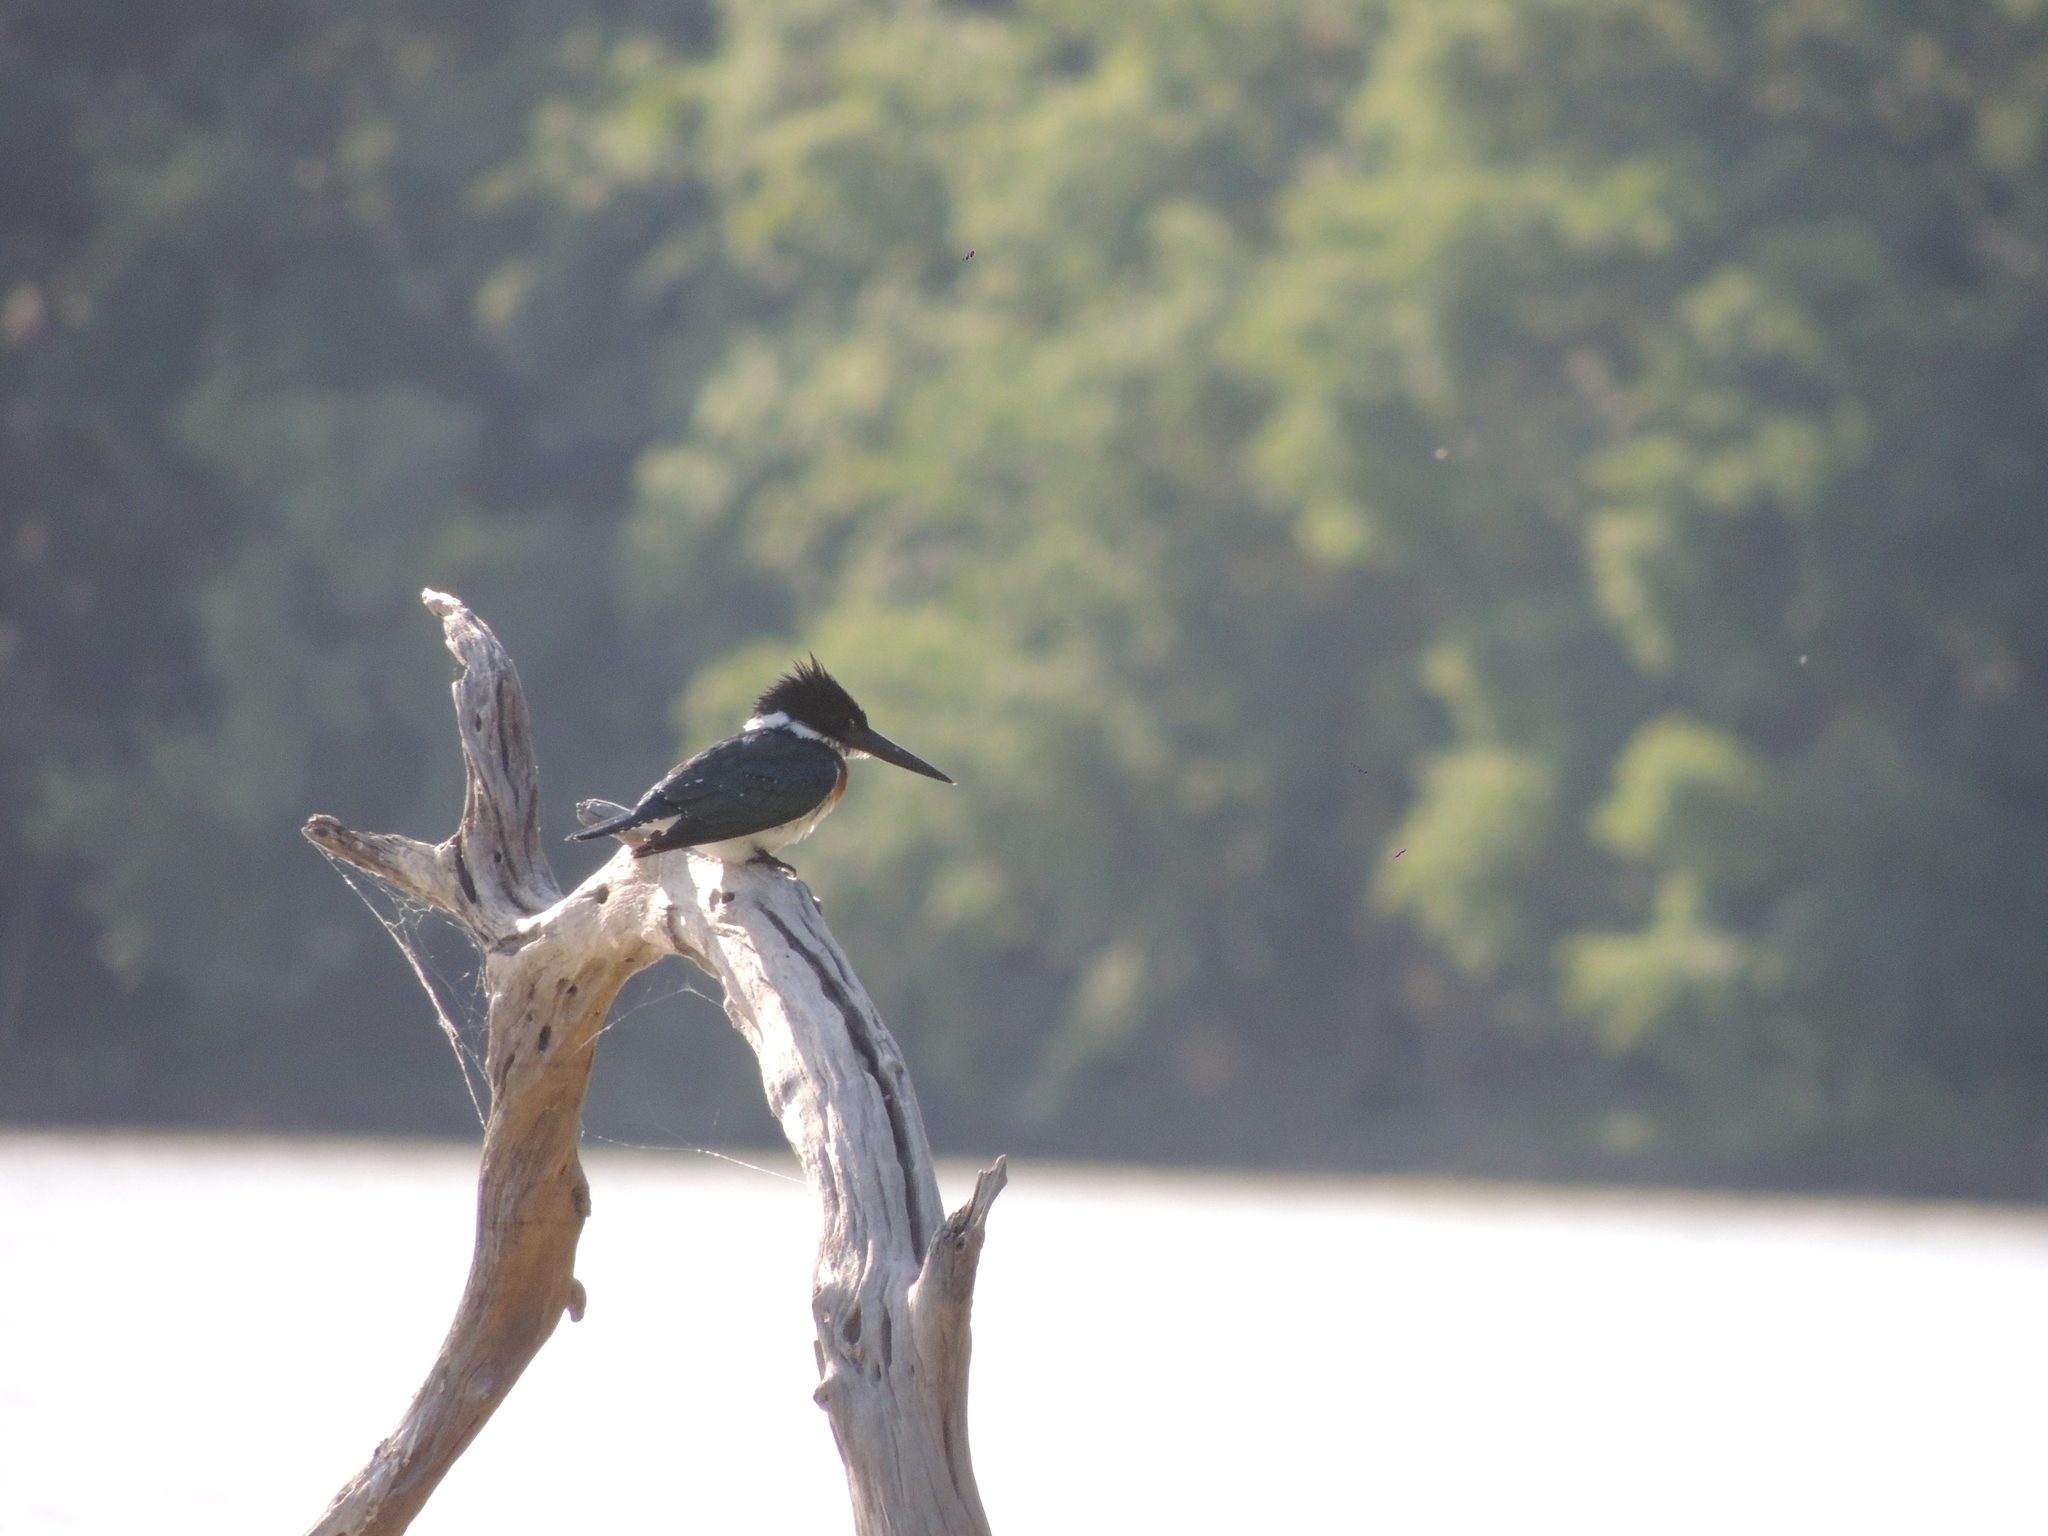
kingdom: Animalia
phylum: Chordata
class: Aves
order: Coraciiformes
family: Alcedinidae
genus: Chloroceryle
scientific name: Chloroceryle amazona
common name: Amazon kingfisher
